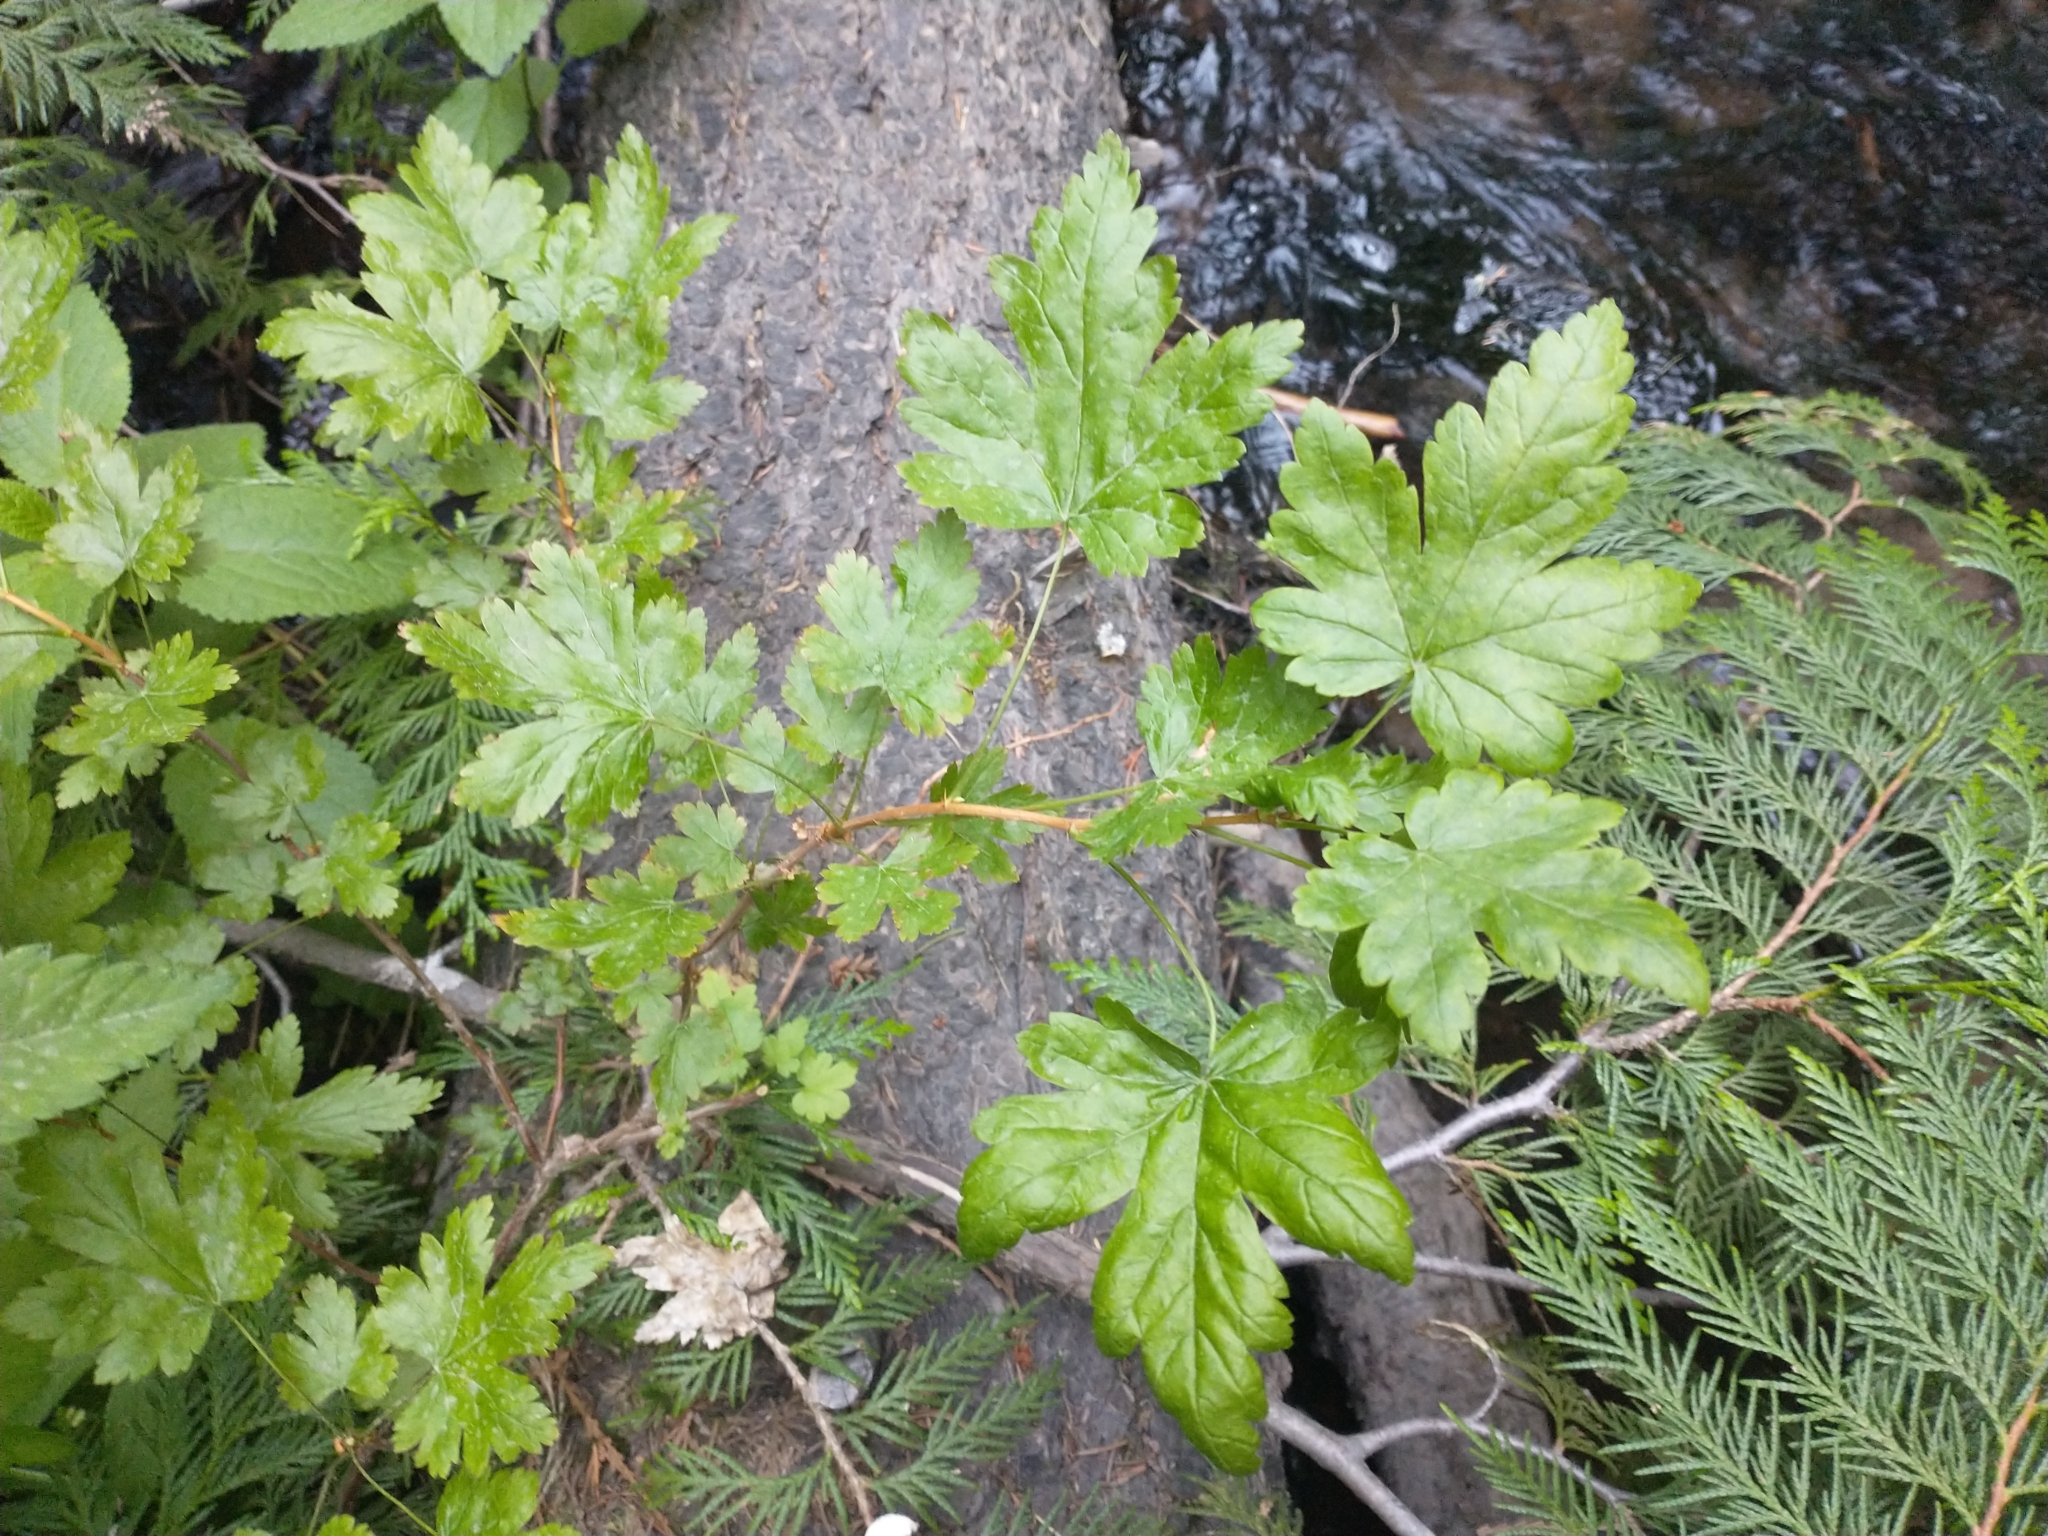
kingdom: Plantae
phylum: Tracheophyta
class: Magnoliopsida
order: Saxifragales
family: Grossulariaceae
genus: Ribes
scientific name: Ribes lacustre
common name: Black gooseberry
